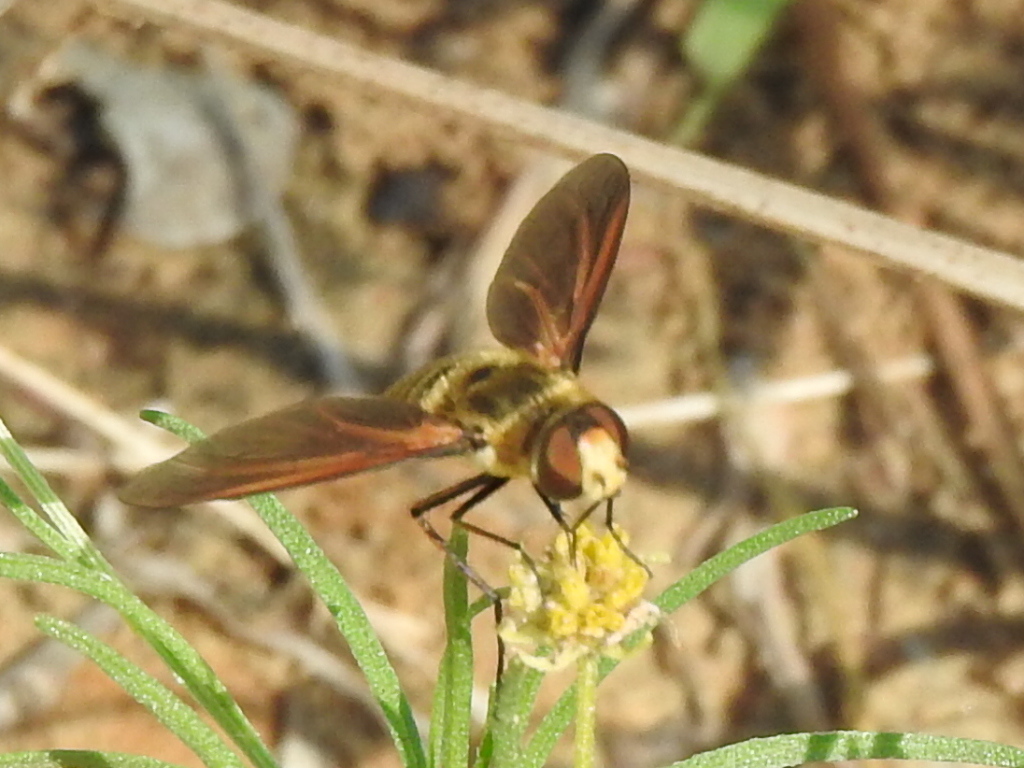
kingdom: Animalia
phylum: Arthropoda
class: Insecta
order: Diptera
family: Bombyliidae
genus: Poecilanthrax
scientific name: Poecilanthrax lucifer
